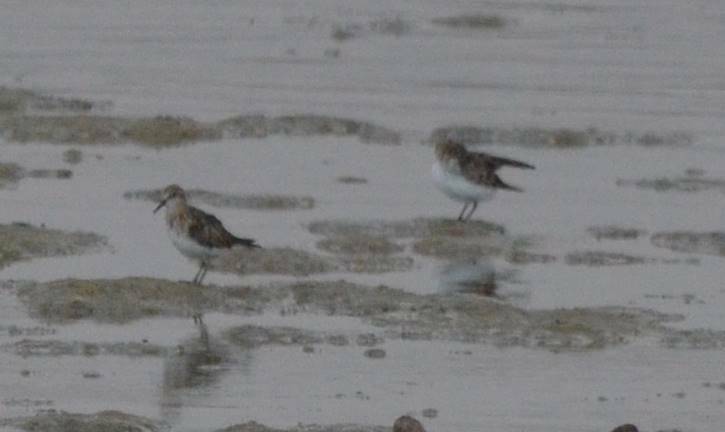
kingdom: Animalia
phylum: Chordata
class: Aves
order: Charadriiformes
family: Scolopacidae
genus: Calidris
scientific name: Calidris minuta
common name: Little stint
